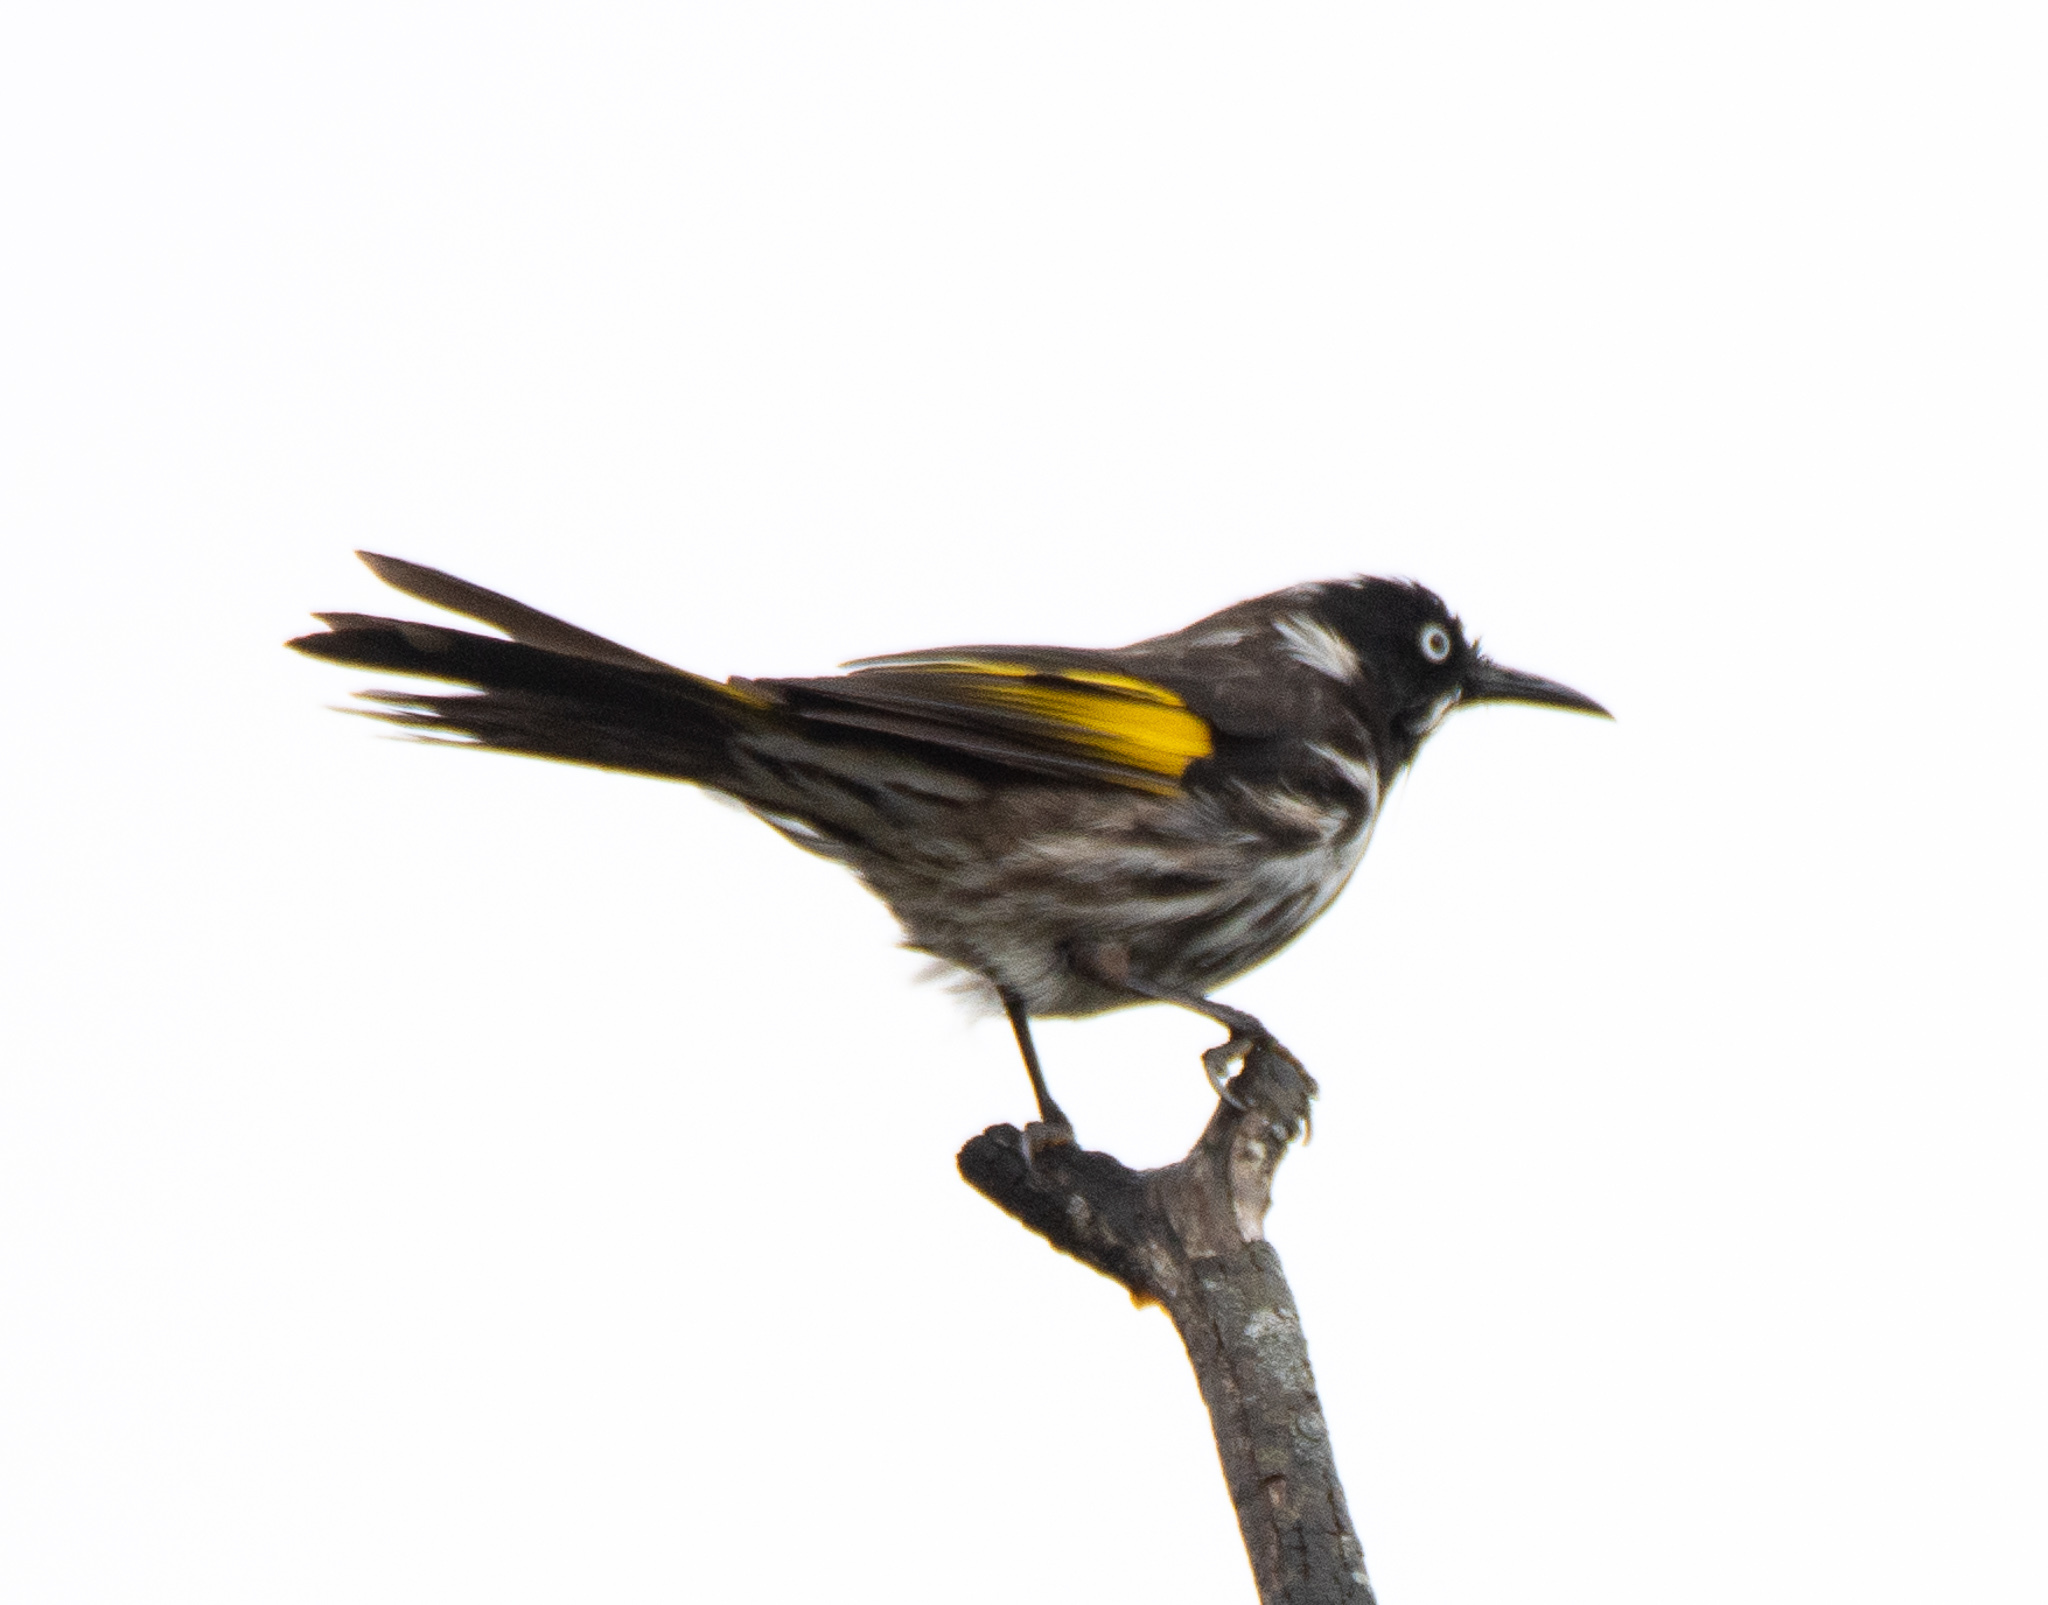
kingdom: Animalia
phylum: Chordata
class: Aves
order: Passeriformes
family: Meliphagidae
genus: Phylidonyris
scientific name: Phylidonyris novaehollandiae
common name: New holland honeyeater
